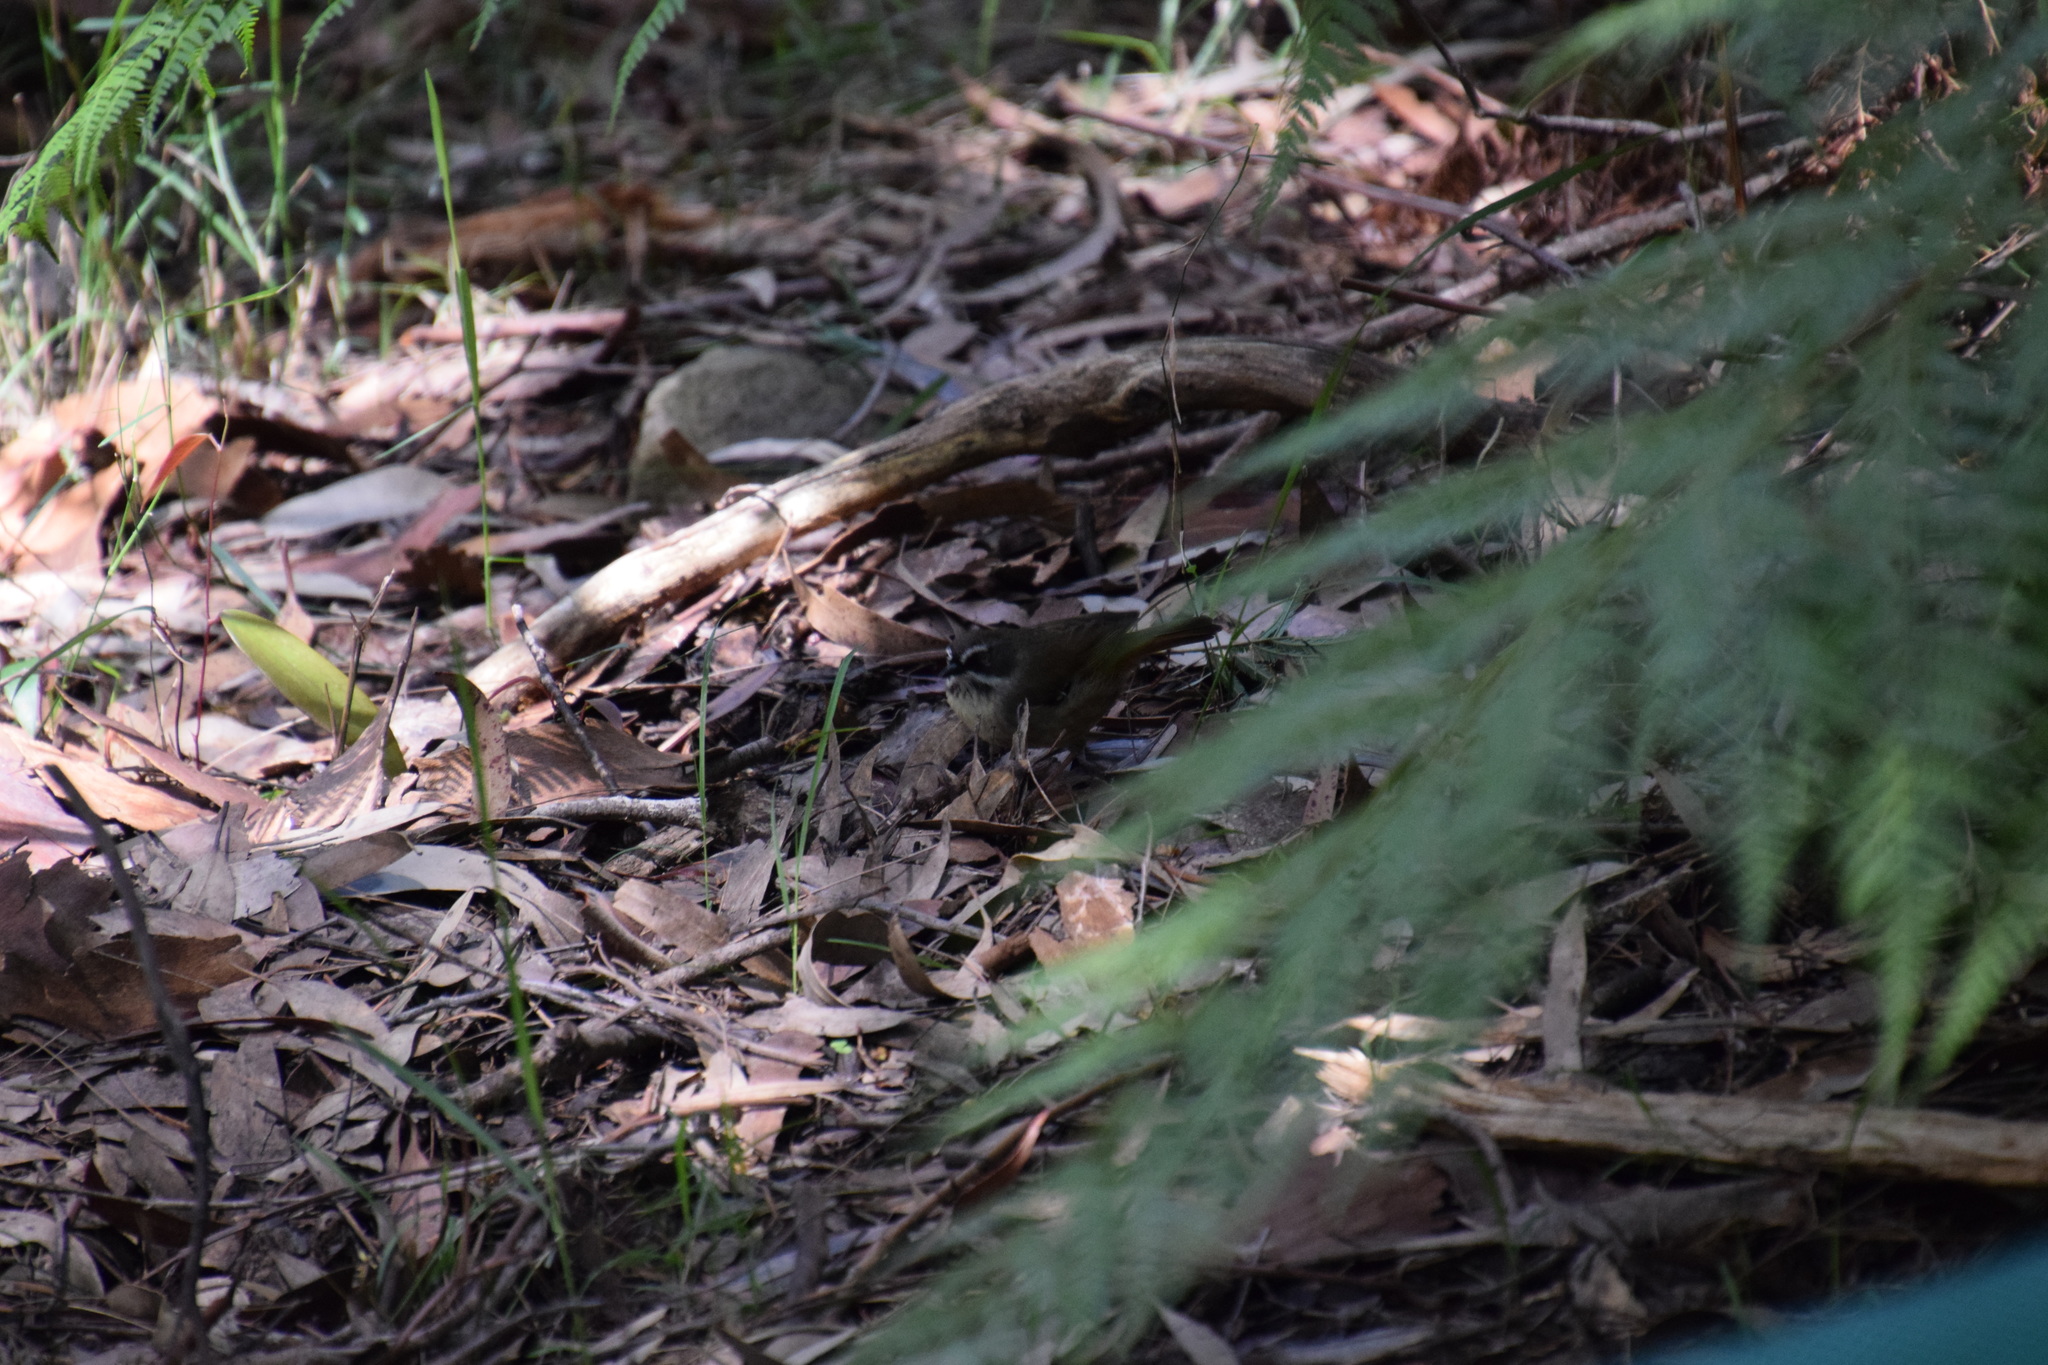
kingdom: Animalia
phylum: Chordata
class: Aves
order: Passeriformes
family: Acanthizidae
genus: Sericornis
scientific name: Sericornis frontalis
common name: White-browed scrubwren
